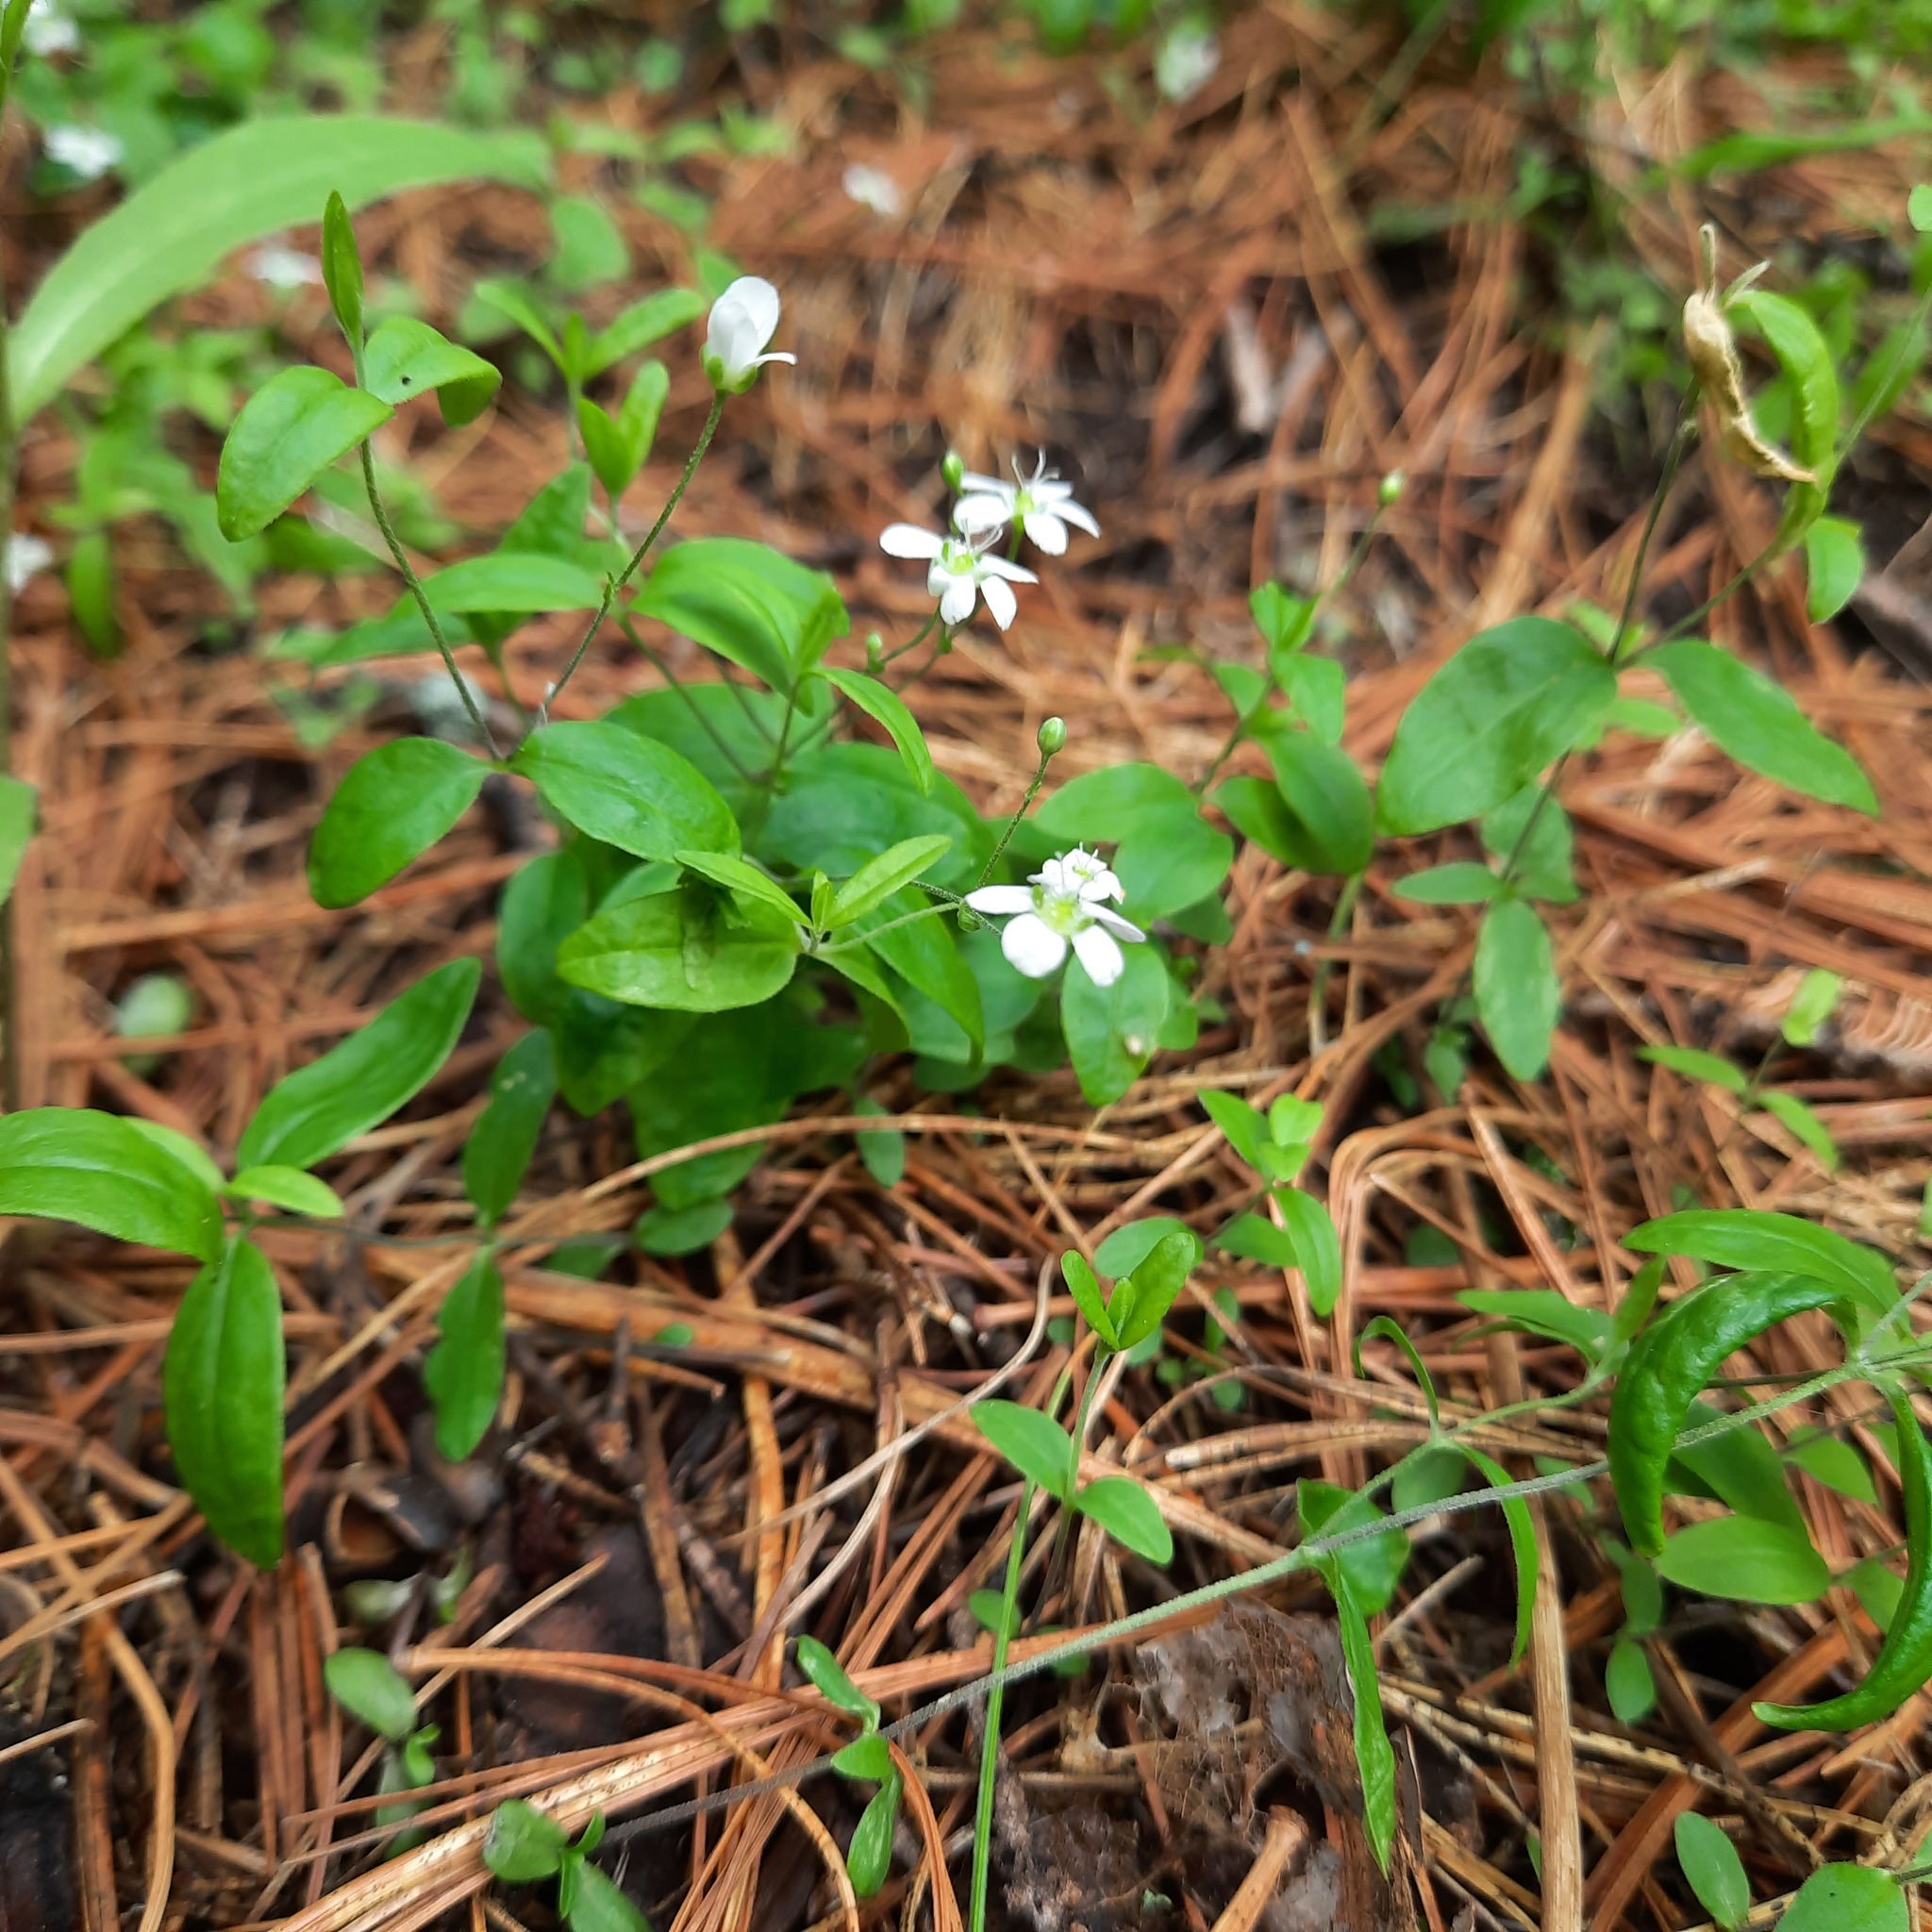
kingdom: Plantae
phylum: Tracheophyta
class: Magnoliopsida
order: Caryophyllales
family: Caryophyllaceae
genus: Moehringia
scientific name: Moehringia lateriflora
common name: Blunt-leaved sandwort
